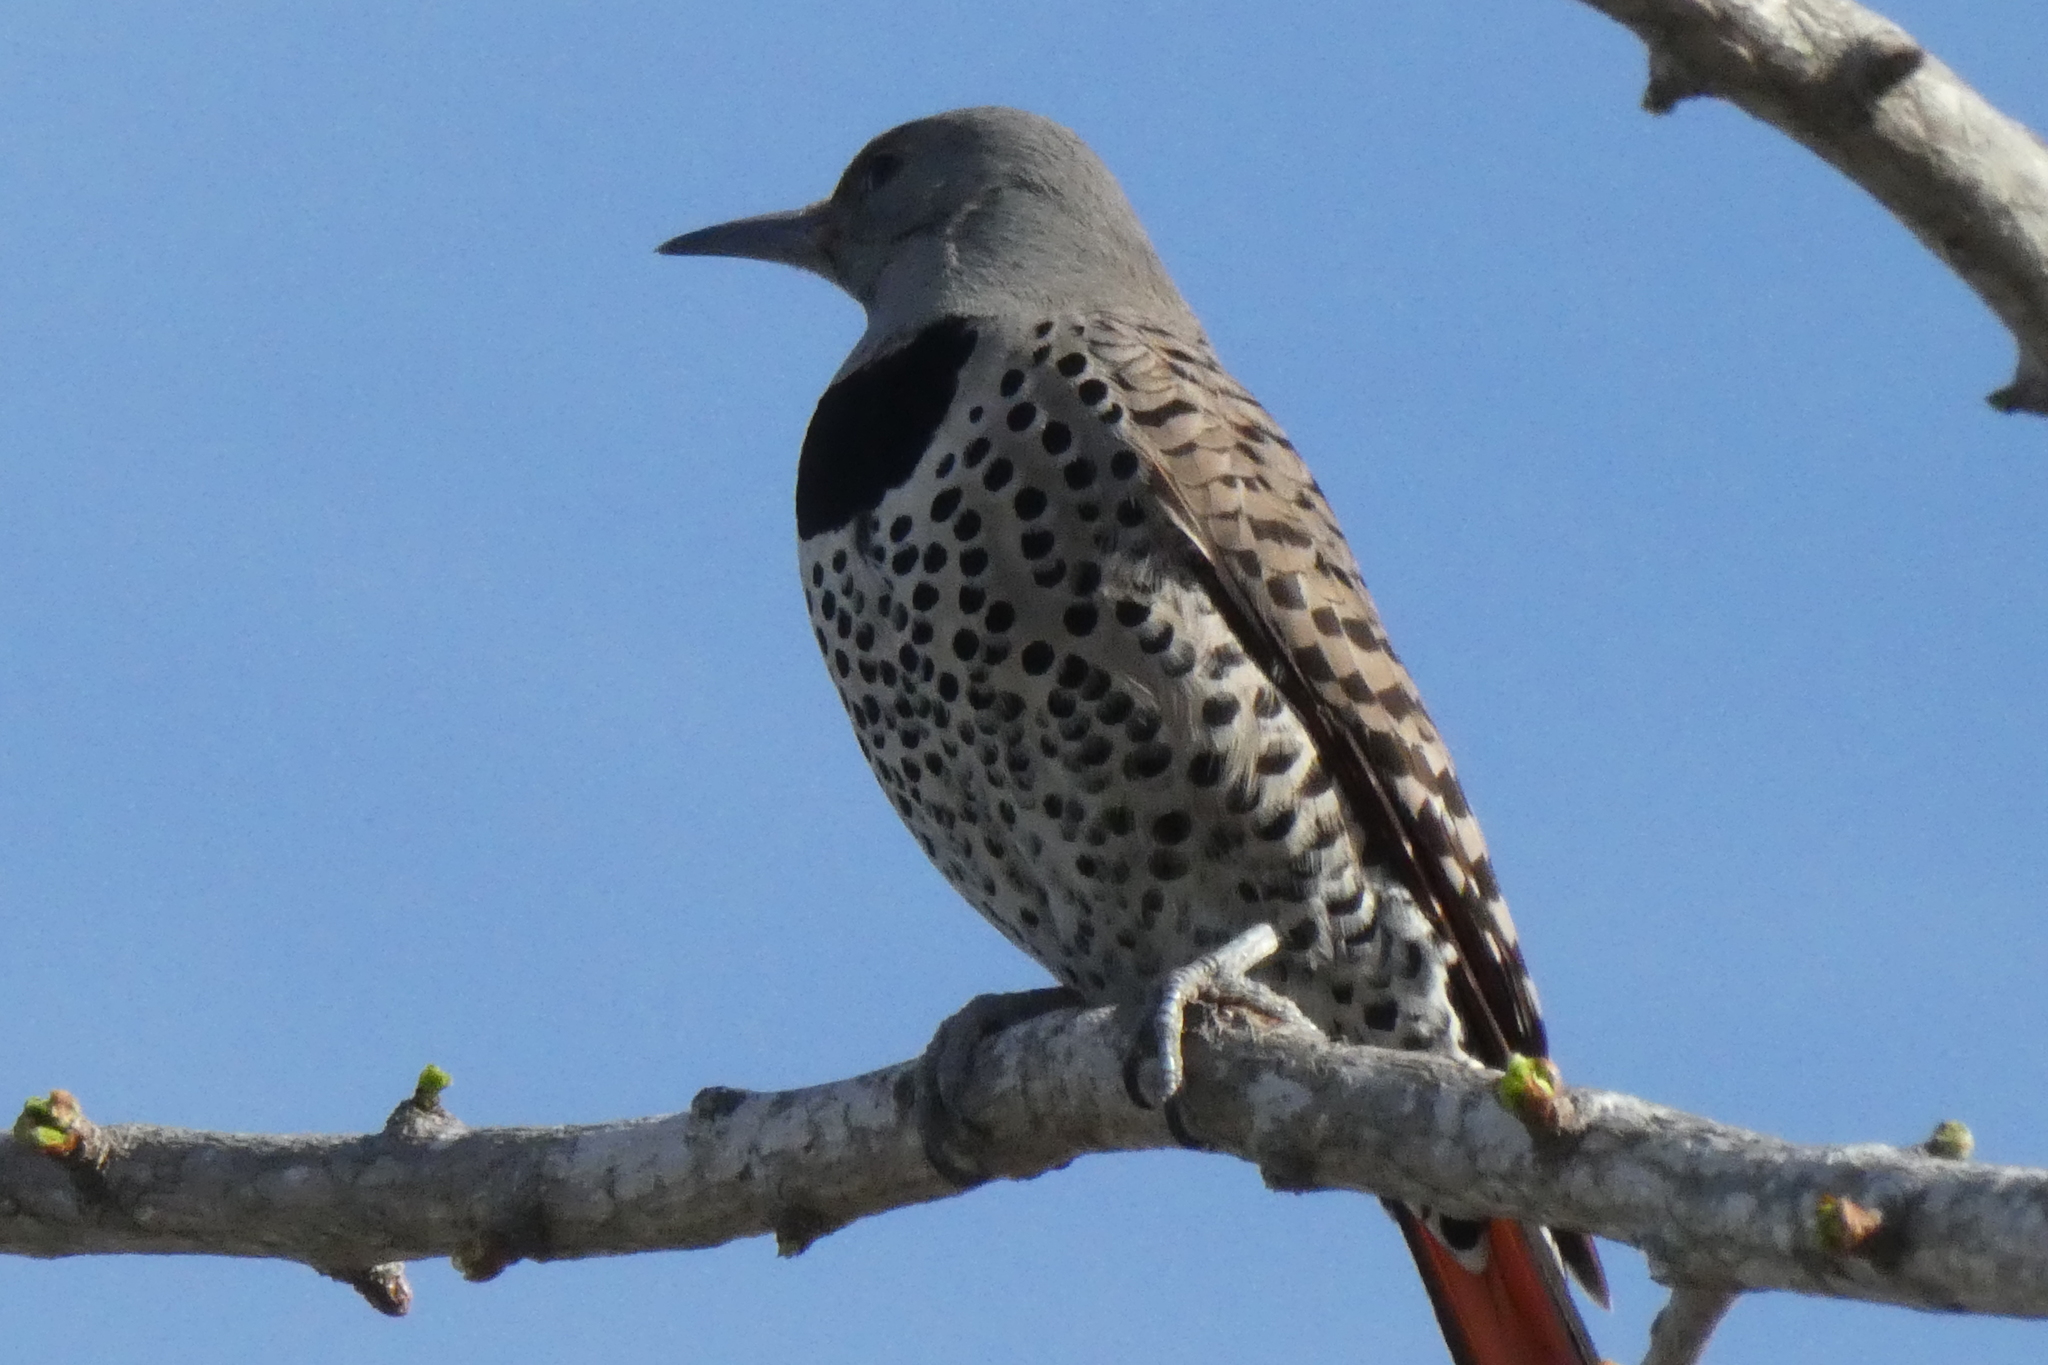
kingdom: Animalia
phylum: Chordata
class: Aves
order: Piciformes
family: Picidae
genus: Colaptes
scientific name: Colaptes auratus
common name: Northern flicker
